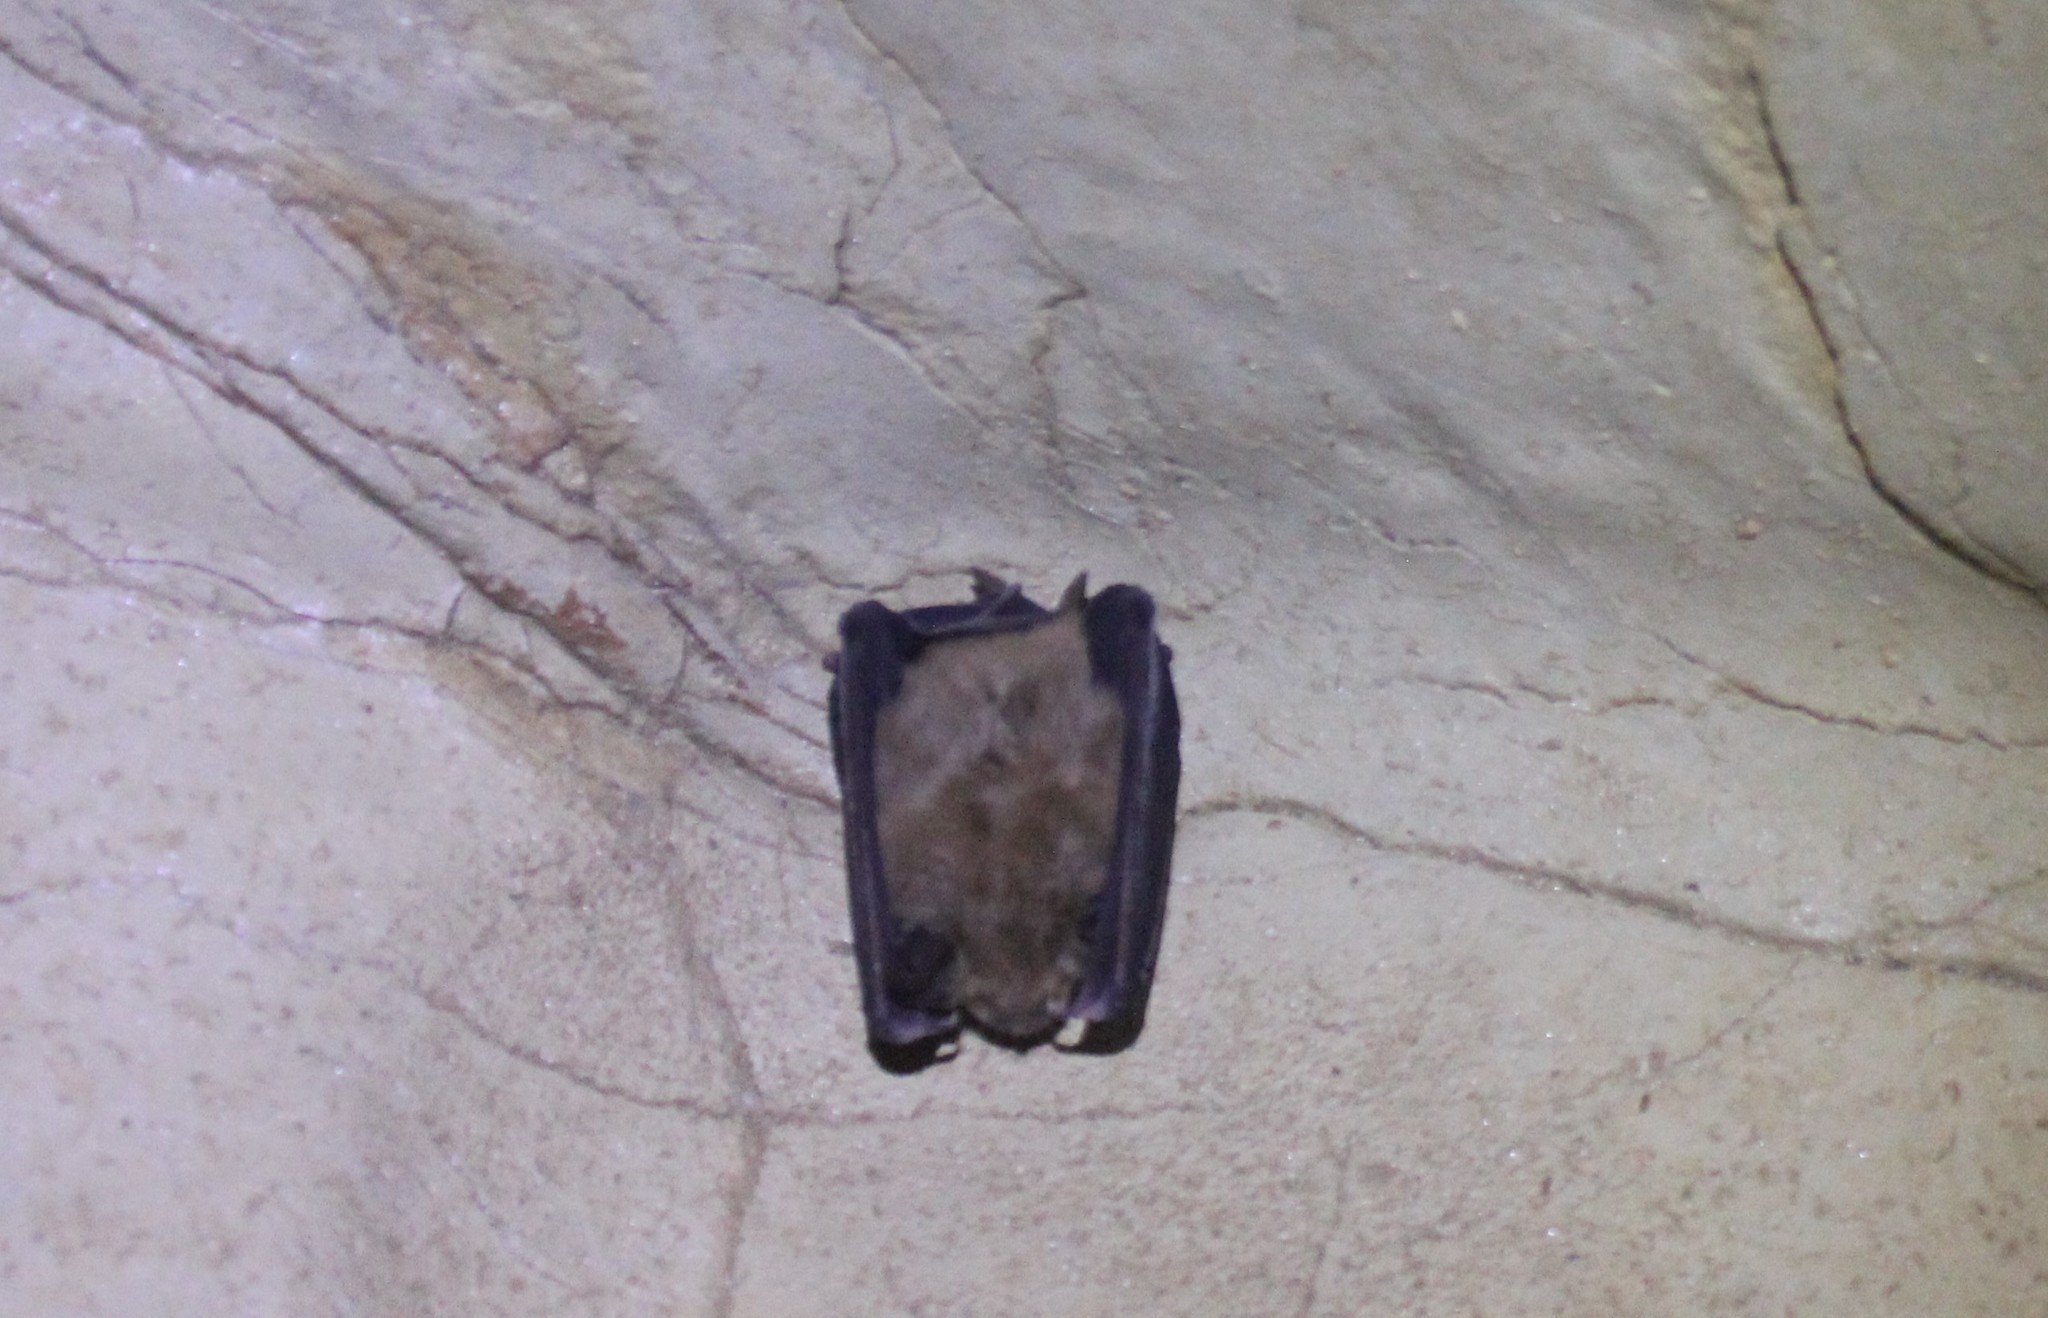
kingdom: Animalia
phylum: Chordata
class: Mammalia
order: Chiroptera
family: Rhinolophidae
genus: Rhinolophus
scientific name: Rhinolophus ferrumequinum
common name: Greater horseshoe bat
